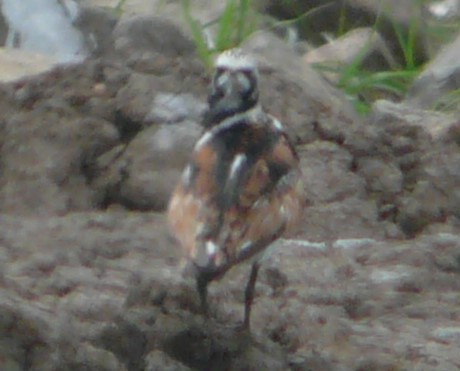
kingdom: Animalia
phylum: Chordata
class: Aves
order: Charadriiformes
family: Scolopacidae
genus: Arenaria
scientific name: Arenaria interpres
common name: Ruddy turnstone
